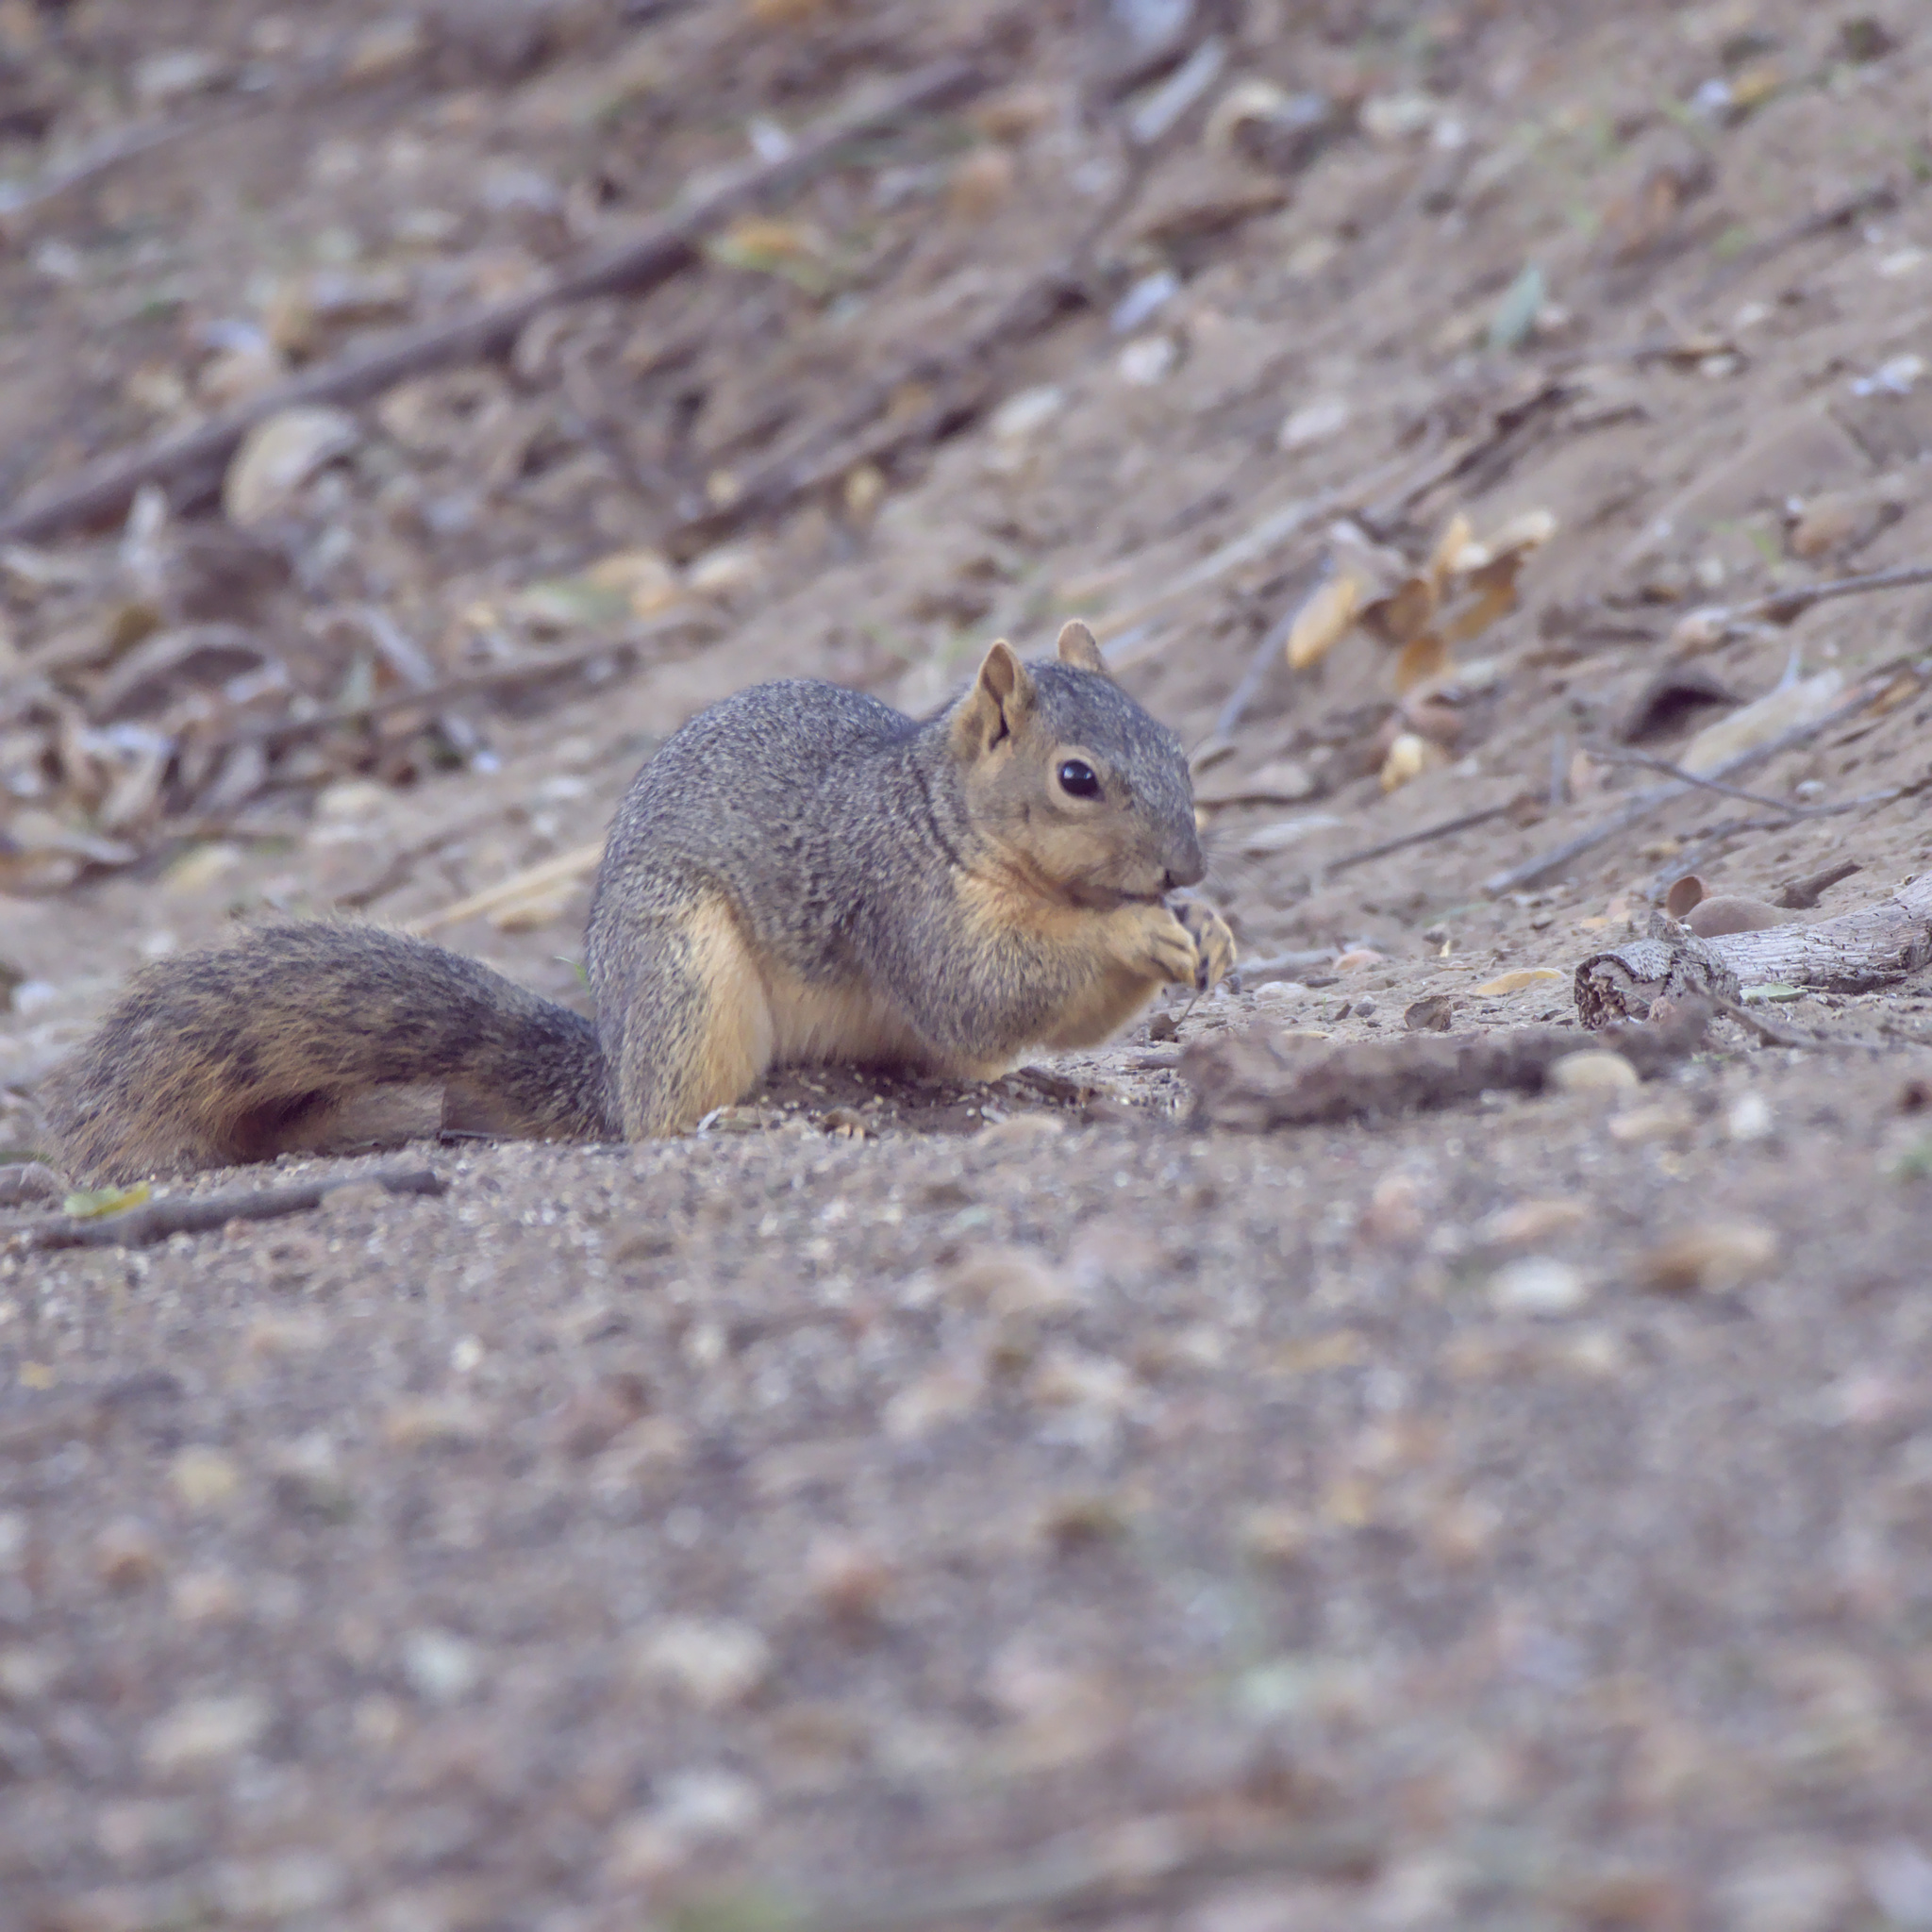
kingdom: Animalia
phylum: Chordata
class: Mammalia
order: Rodentia
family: Sciuridae
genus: Sciurus
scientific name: Sciurus niger
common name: Fox squirrel
